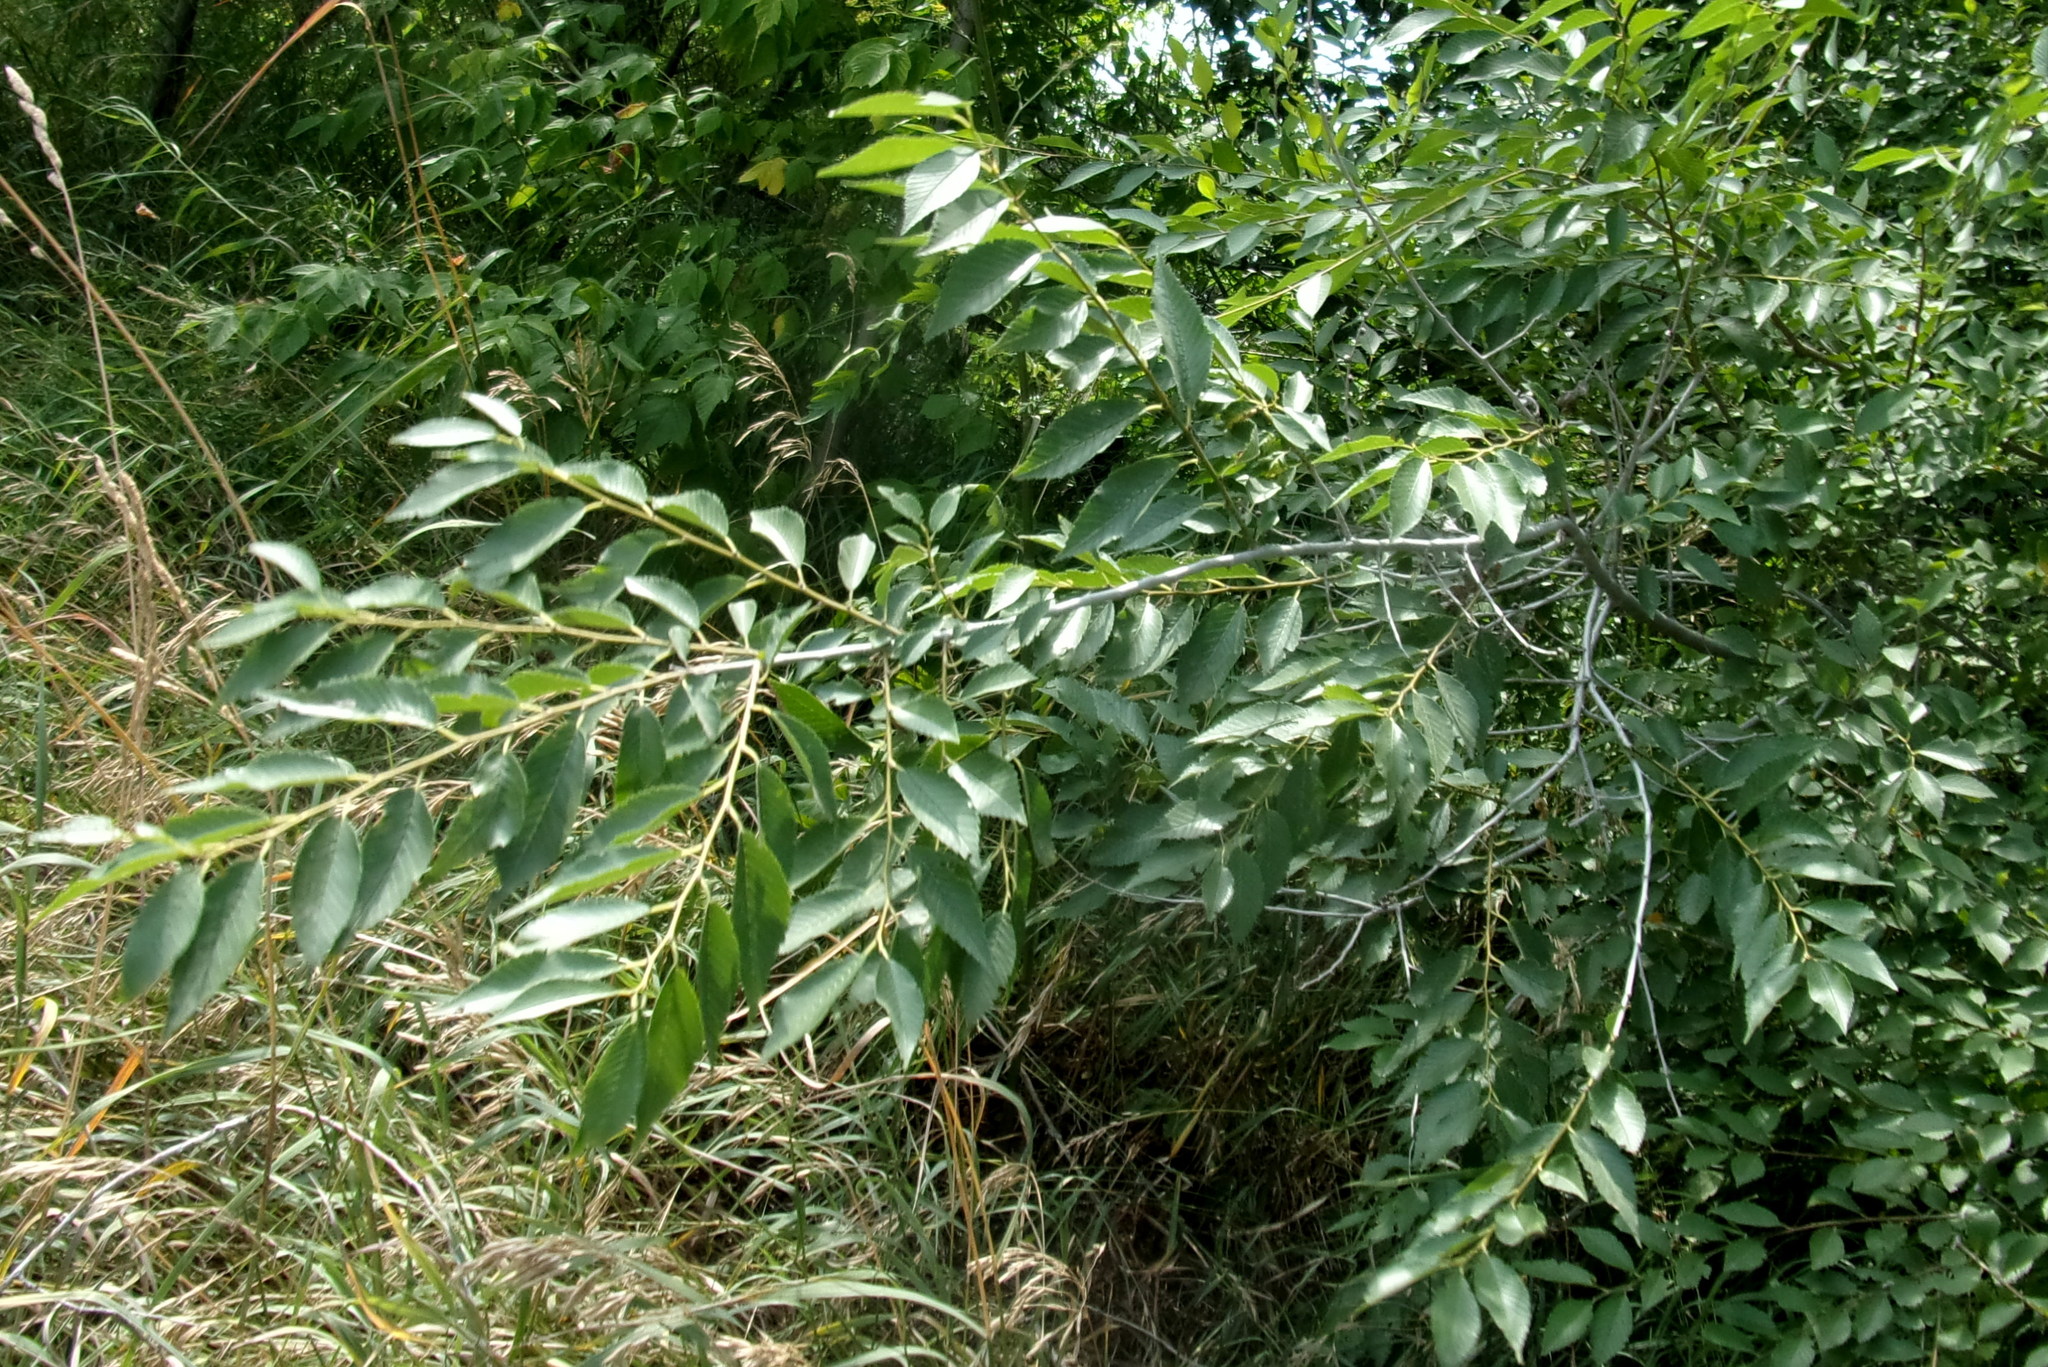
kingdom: Plantae
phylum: Tracheophyta
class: Magnoliopsida
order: Rosales
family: Ulmaceae
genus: Ulmus
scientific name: Ulmus pumila
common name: Siberian elm
